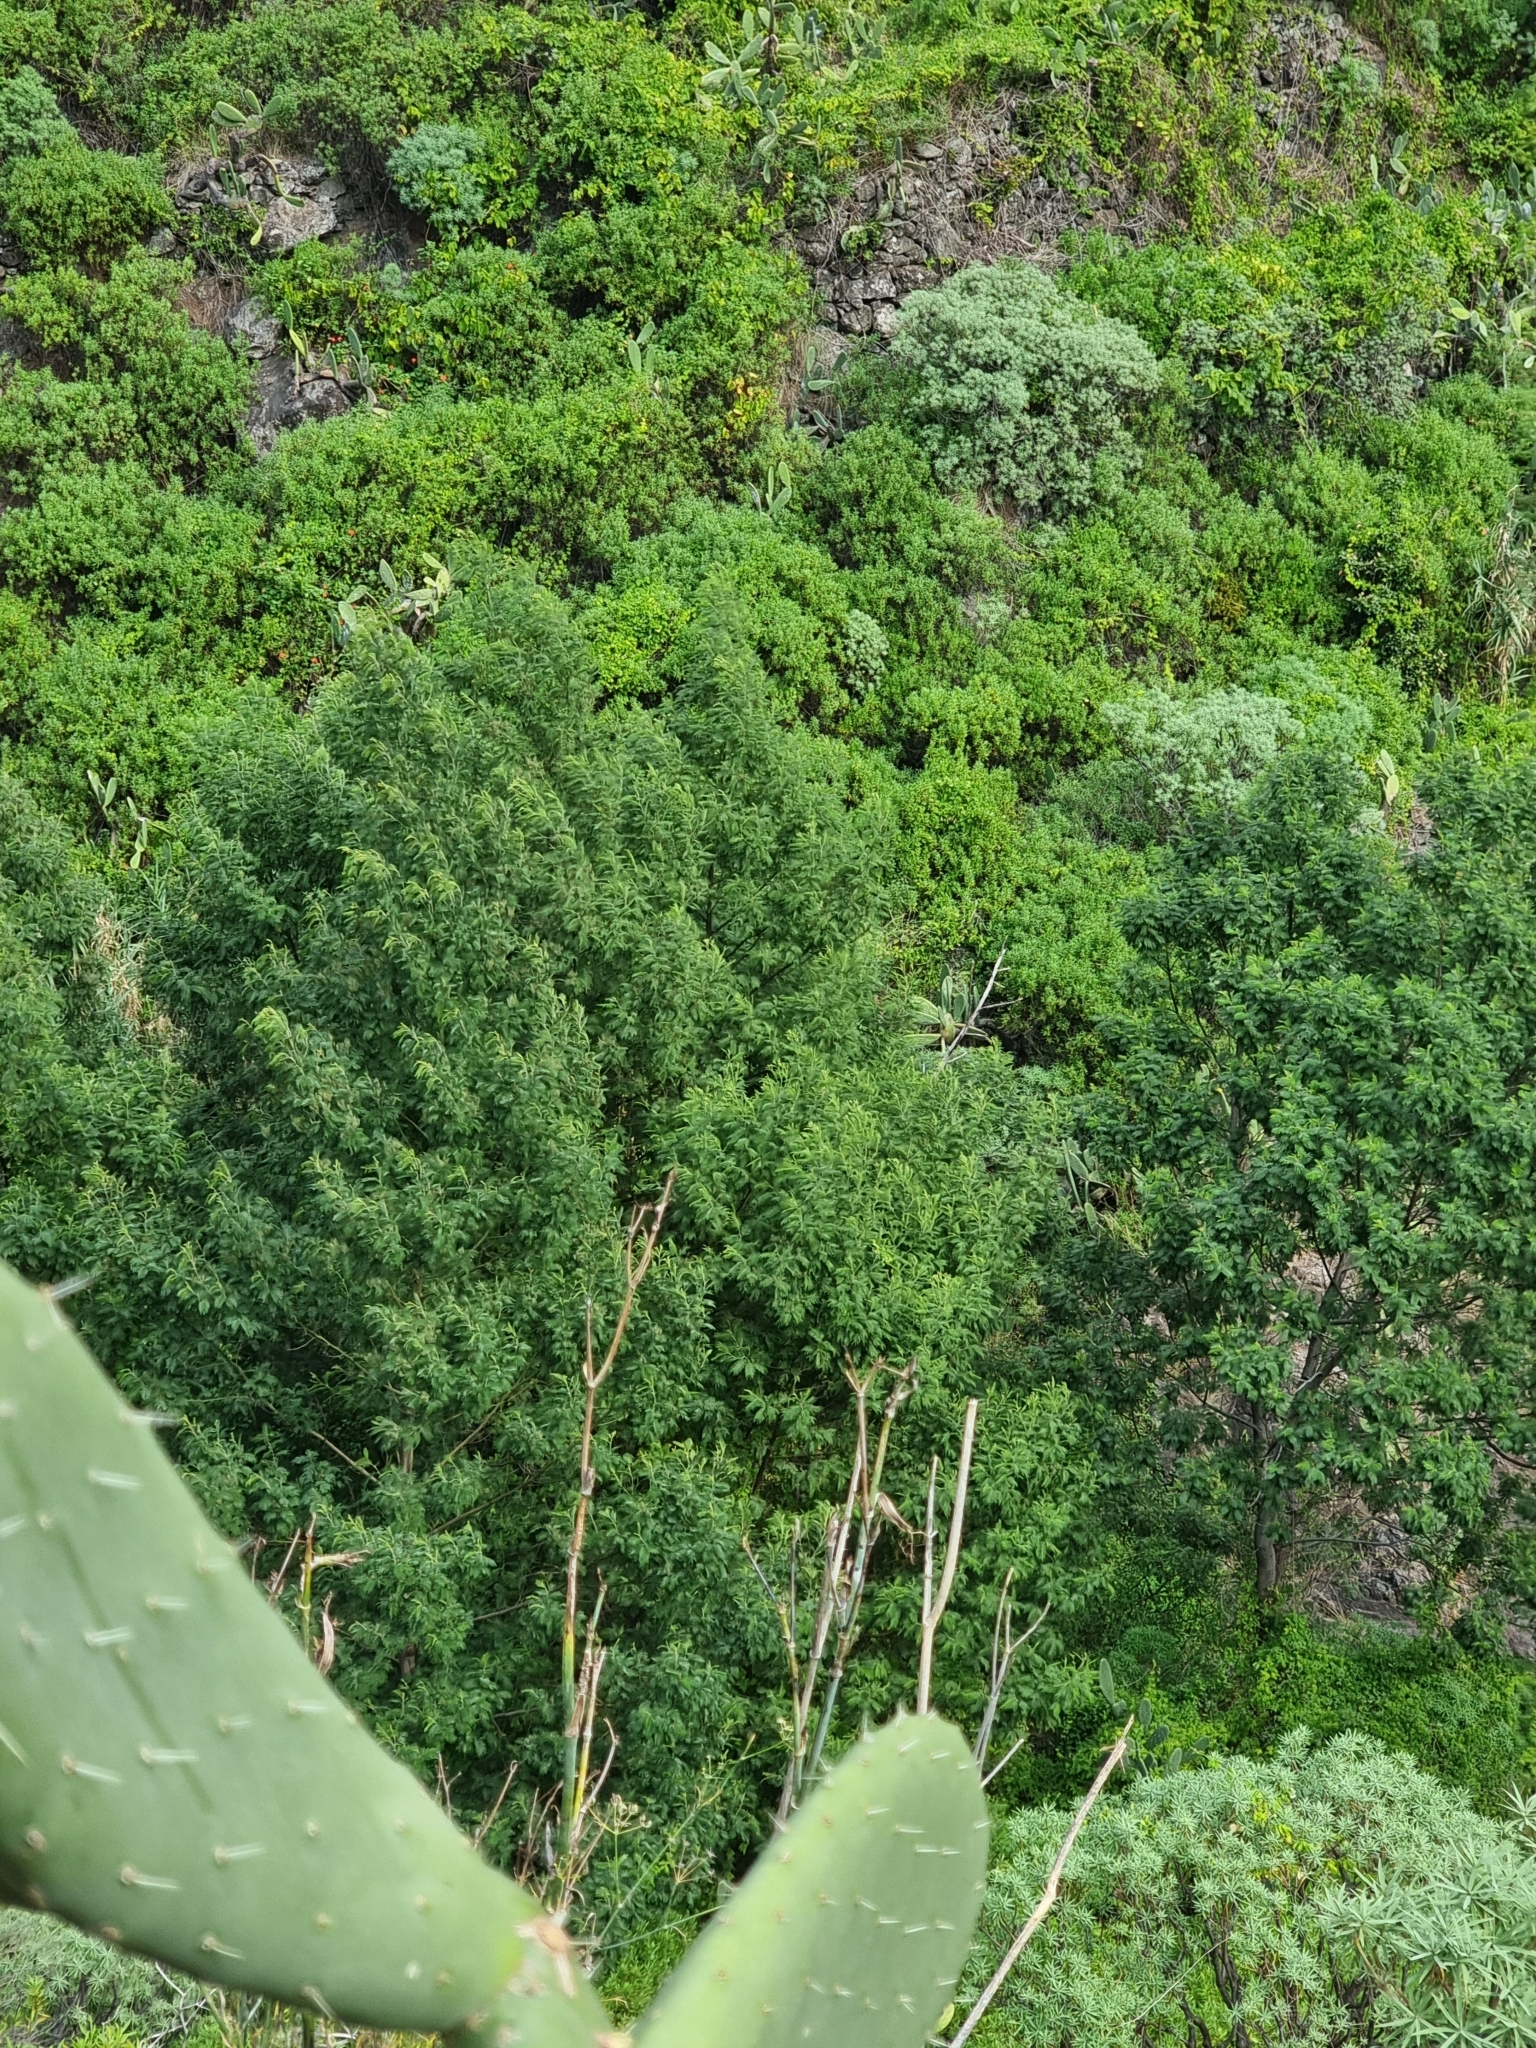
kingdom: Plantae
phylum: Tracheophyta
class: Magnoliopsida
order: Fabales
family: Fabaceae
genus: Acacia
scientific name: Acacia mearnsii
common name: Black wattle
